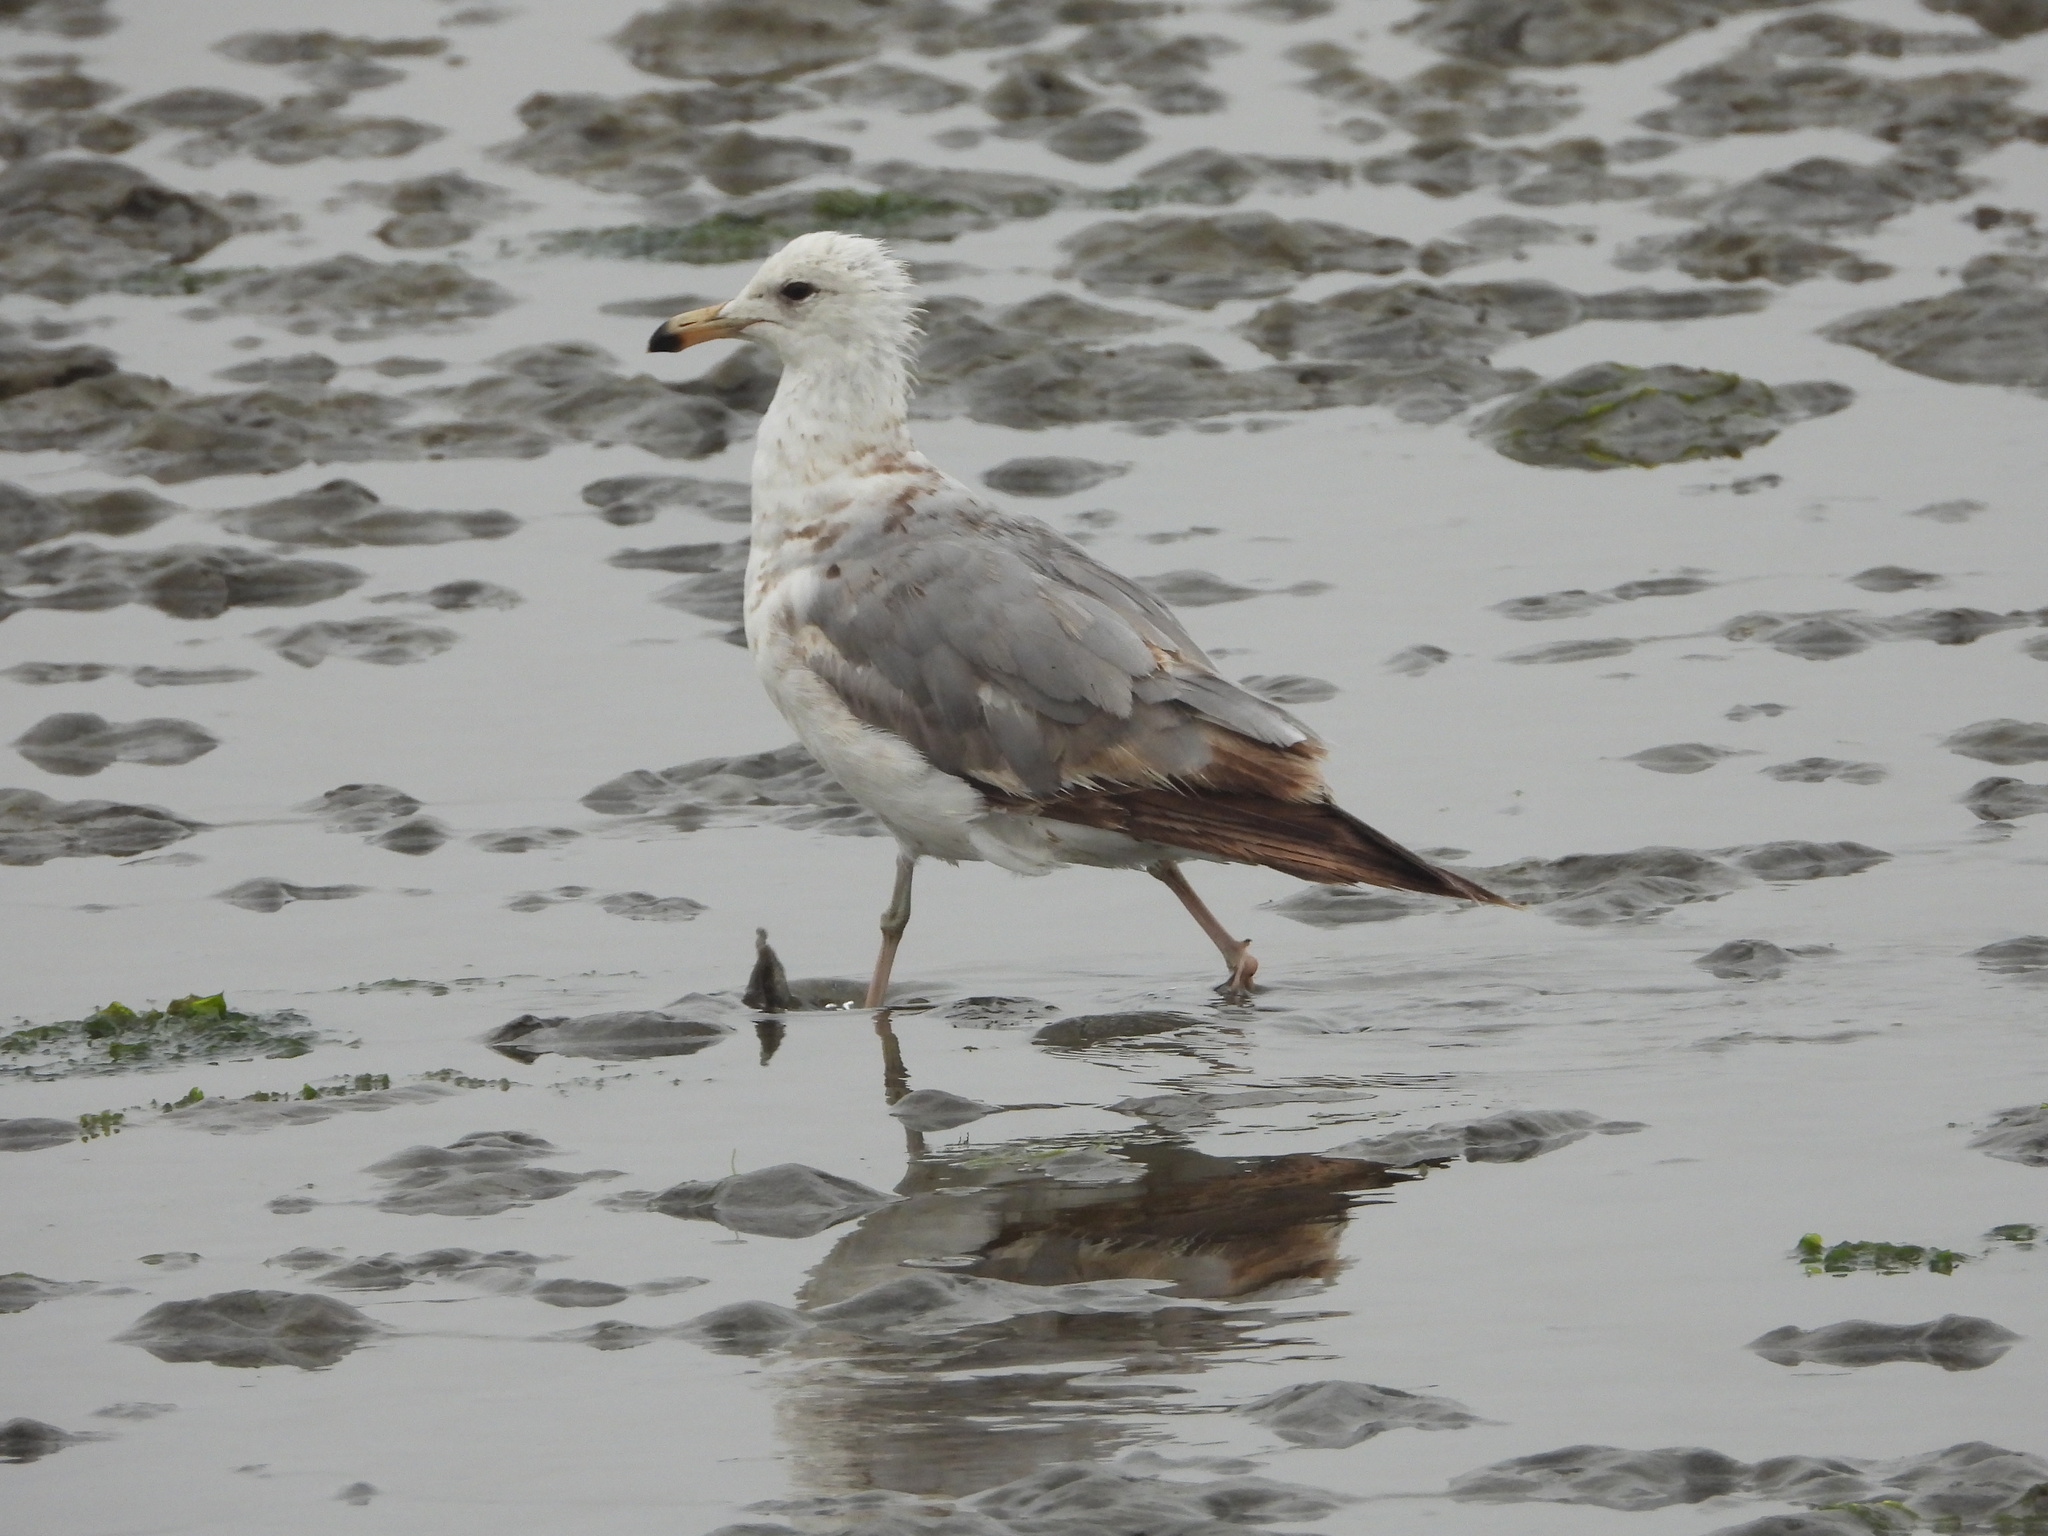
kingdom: Animalia
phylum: Chordata
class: Aves
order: Charadriiformes
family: Laridae
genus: Larus
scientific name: Larus californicus
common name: California gull
